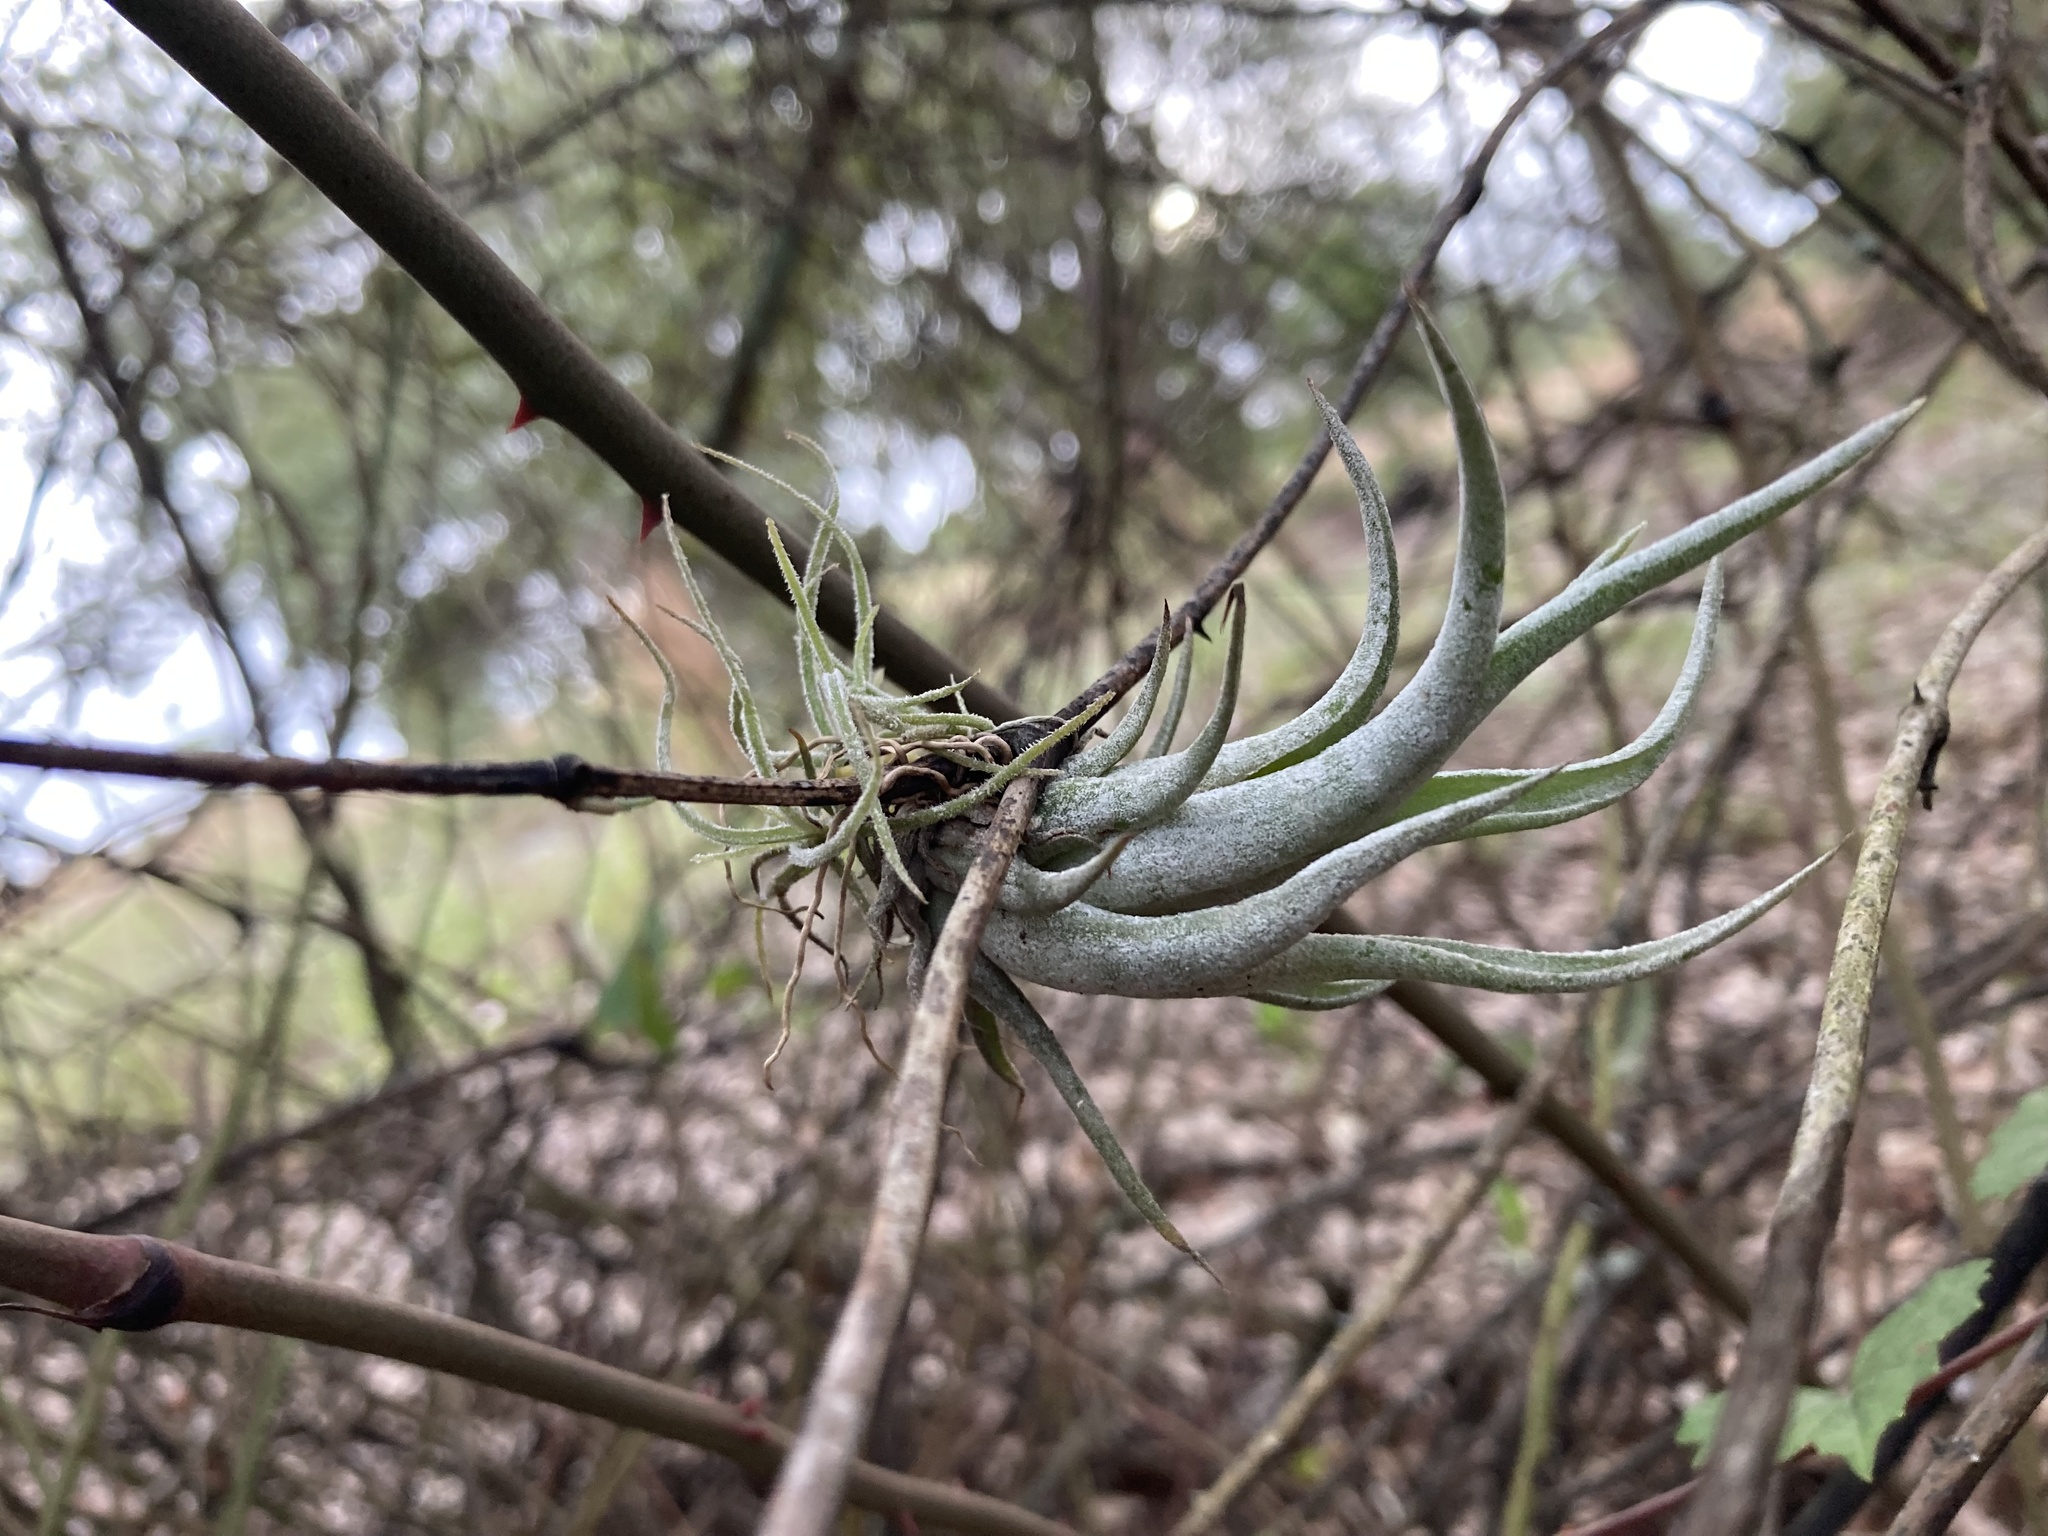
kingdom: Plantae
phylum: Tracheophyta
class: Liliopsida
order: Poales
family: Bromeliaceae
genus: Tillandsia
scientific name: Tillandsia paucifolia
